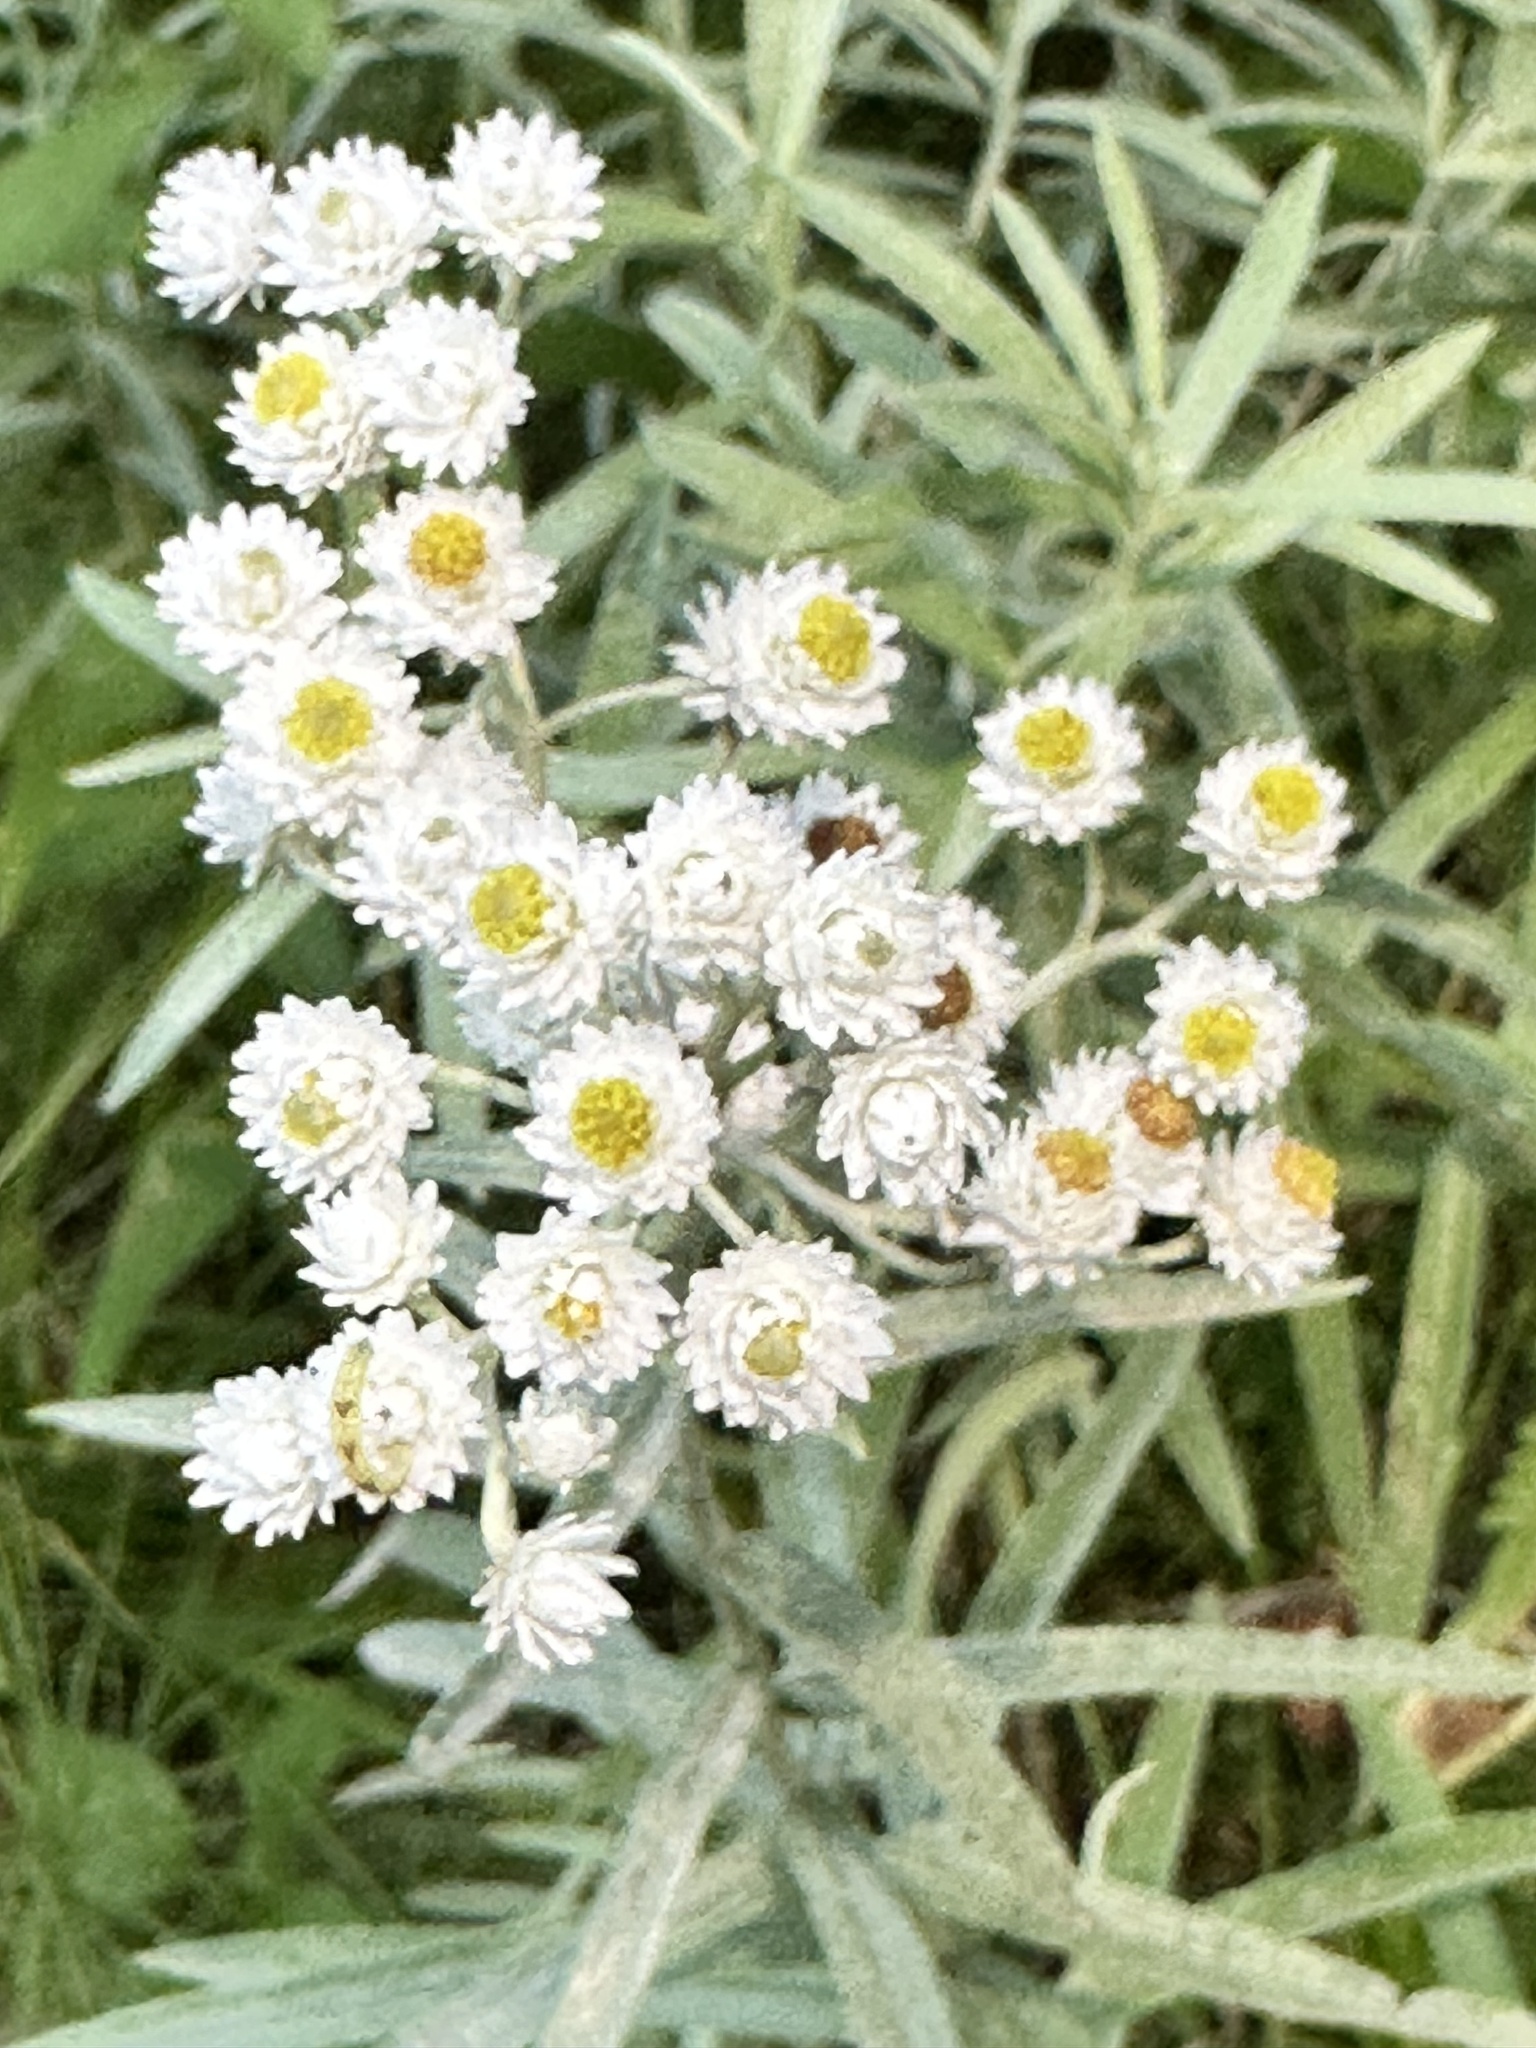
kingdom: Plantae
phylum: Tracheophyta
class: Magnoliopsida
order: Asterales
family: Asteraceae
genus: Anaphalis
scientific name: Anaphalis margaritacea
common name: Pearly everlasting
